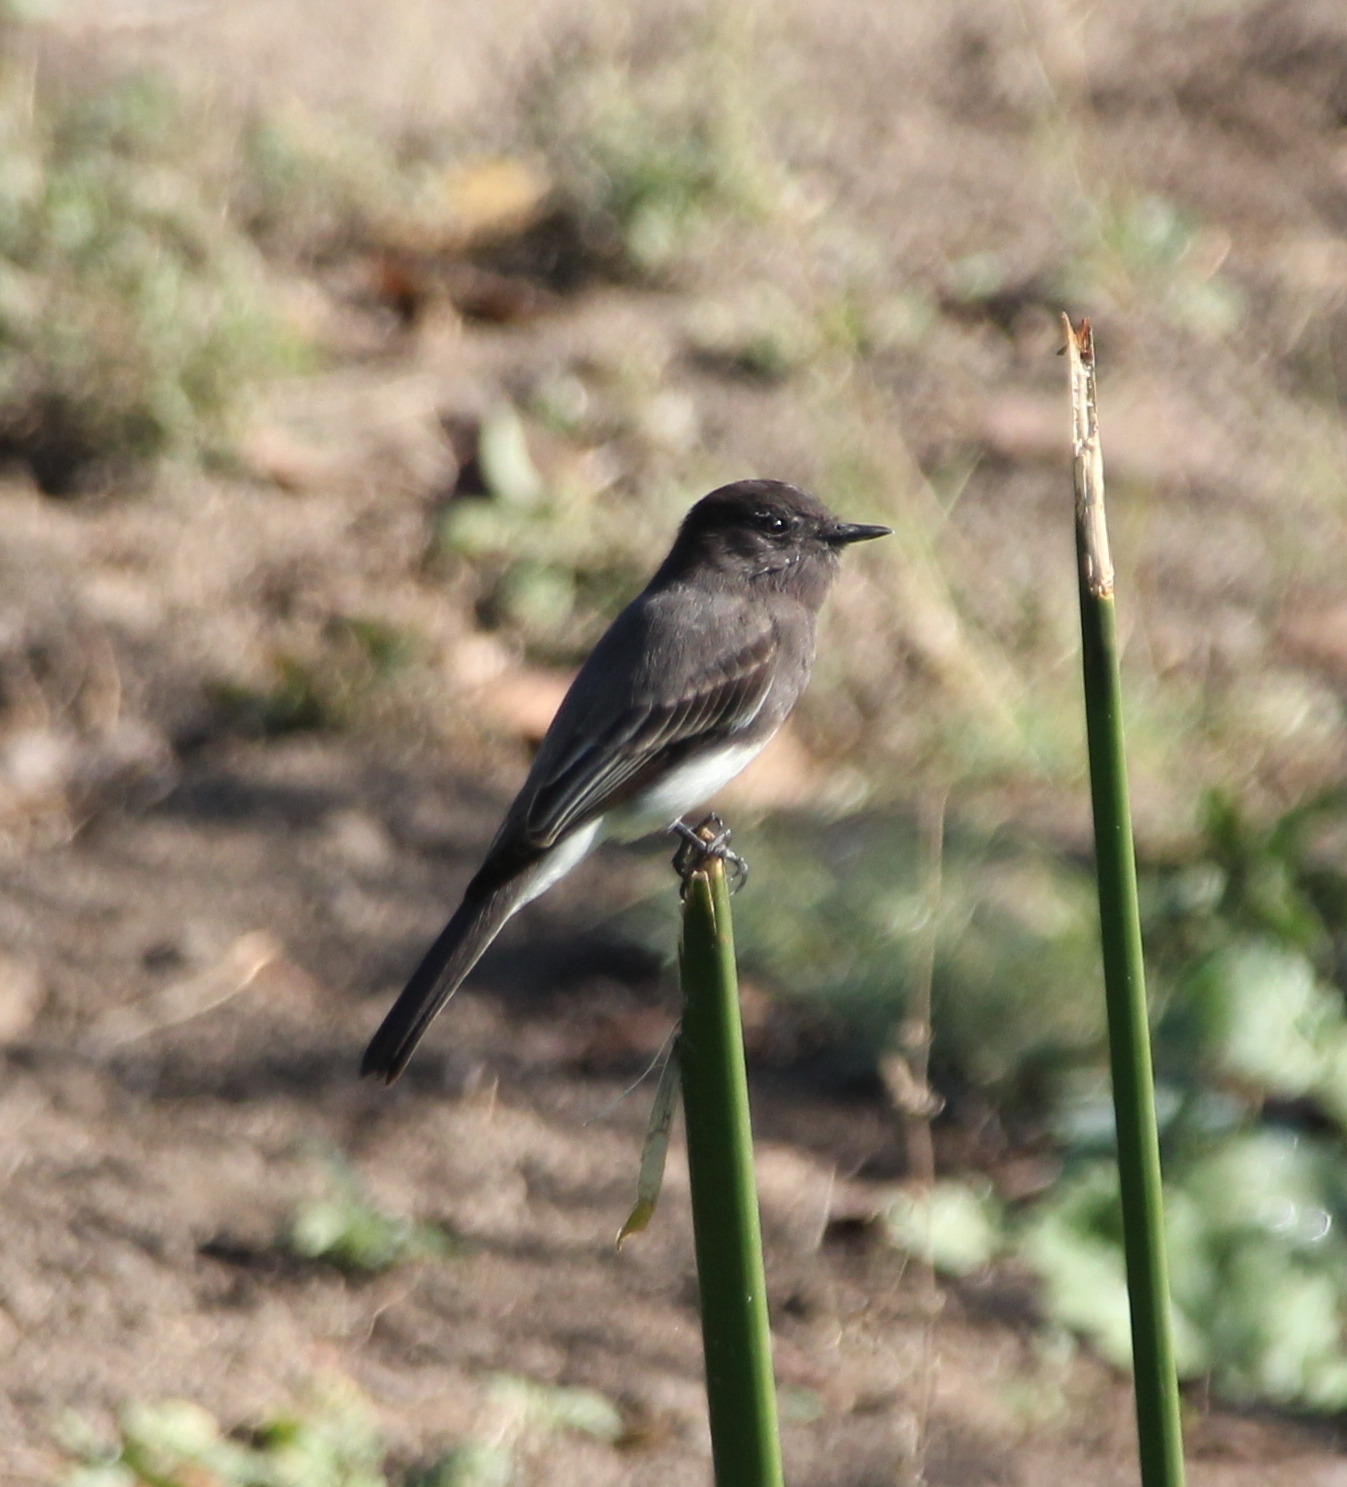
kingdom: Animalia
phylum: Chordata
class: Aves
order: Passeriformes
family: Tyrannidae
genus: Sayornis
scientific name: Sayornis nigricans
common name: Black phoebe
